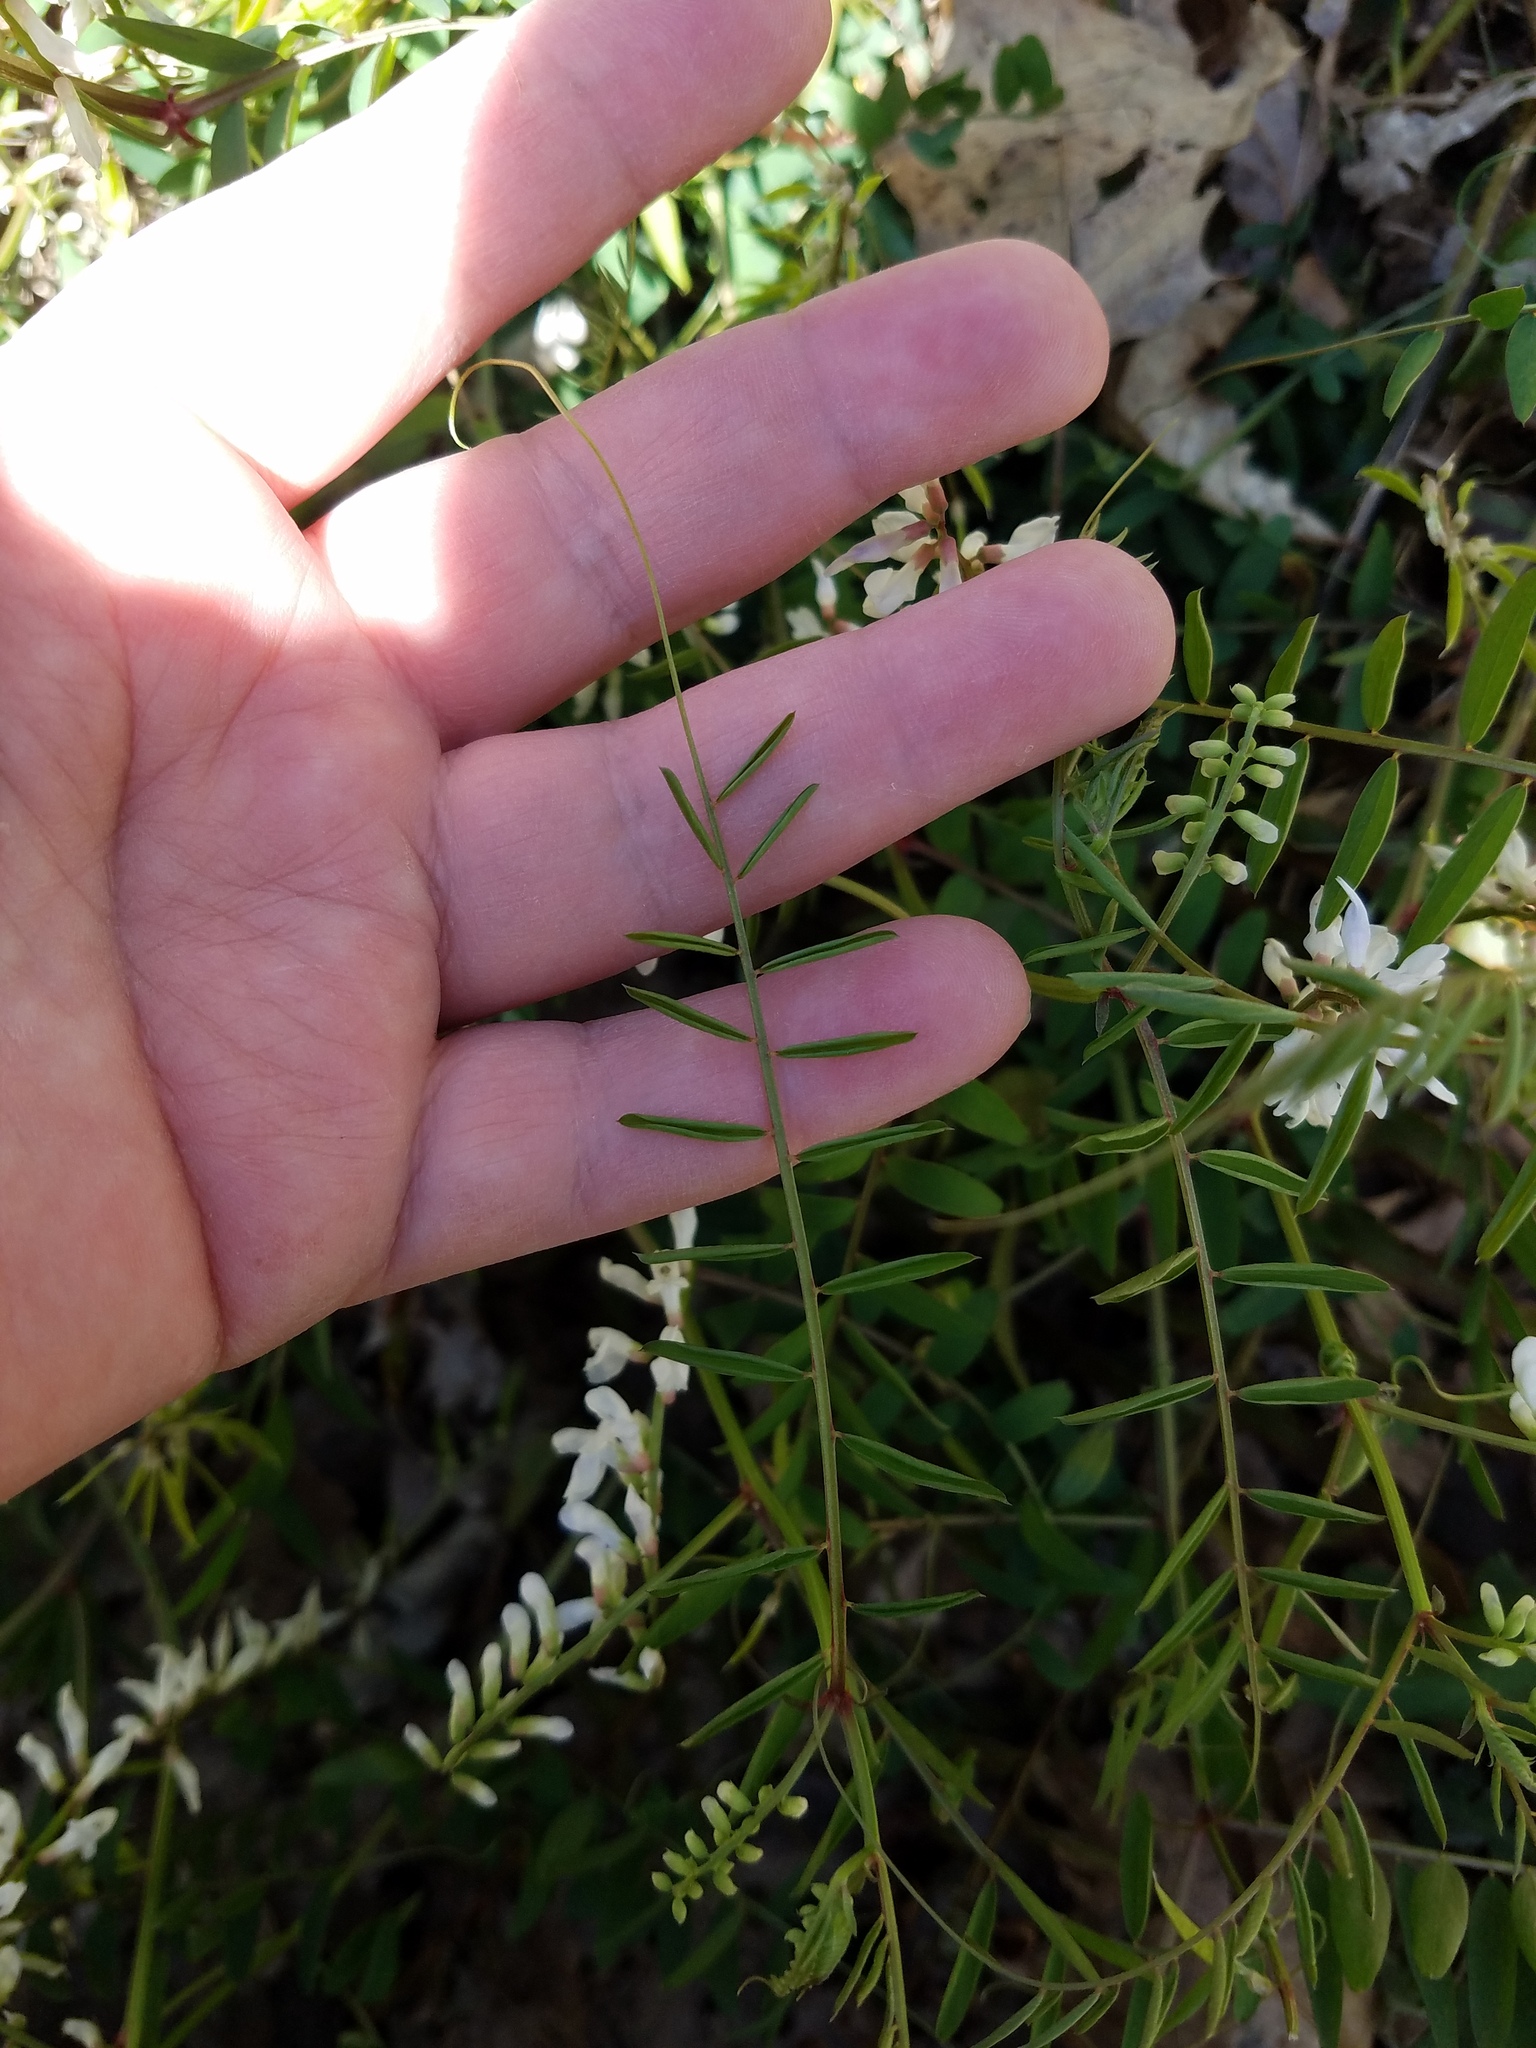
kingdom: Plantae
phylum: Tracheophyta
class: Magnoliopsida
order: Fabales
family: Fabaceae
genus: Vicia
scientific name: Vicia caroliniana
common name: Carolina vetch
